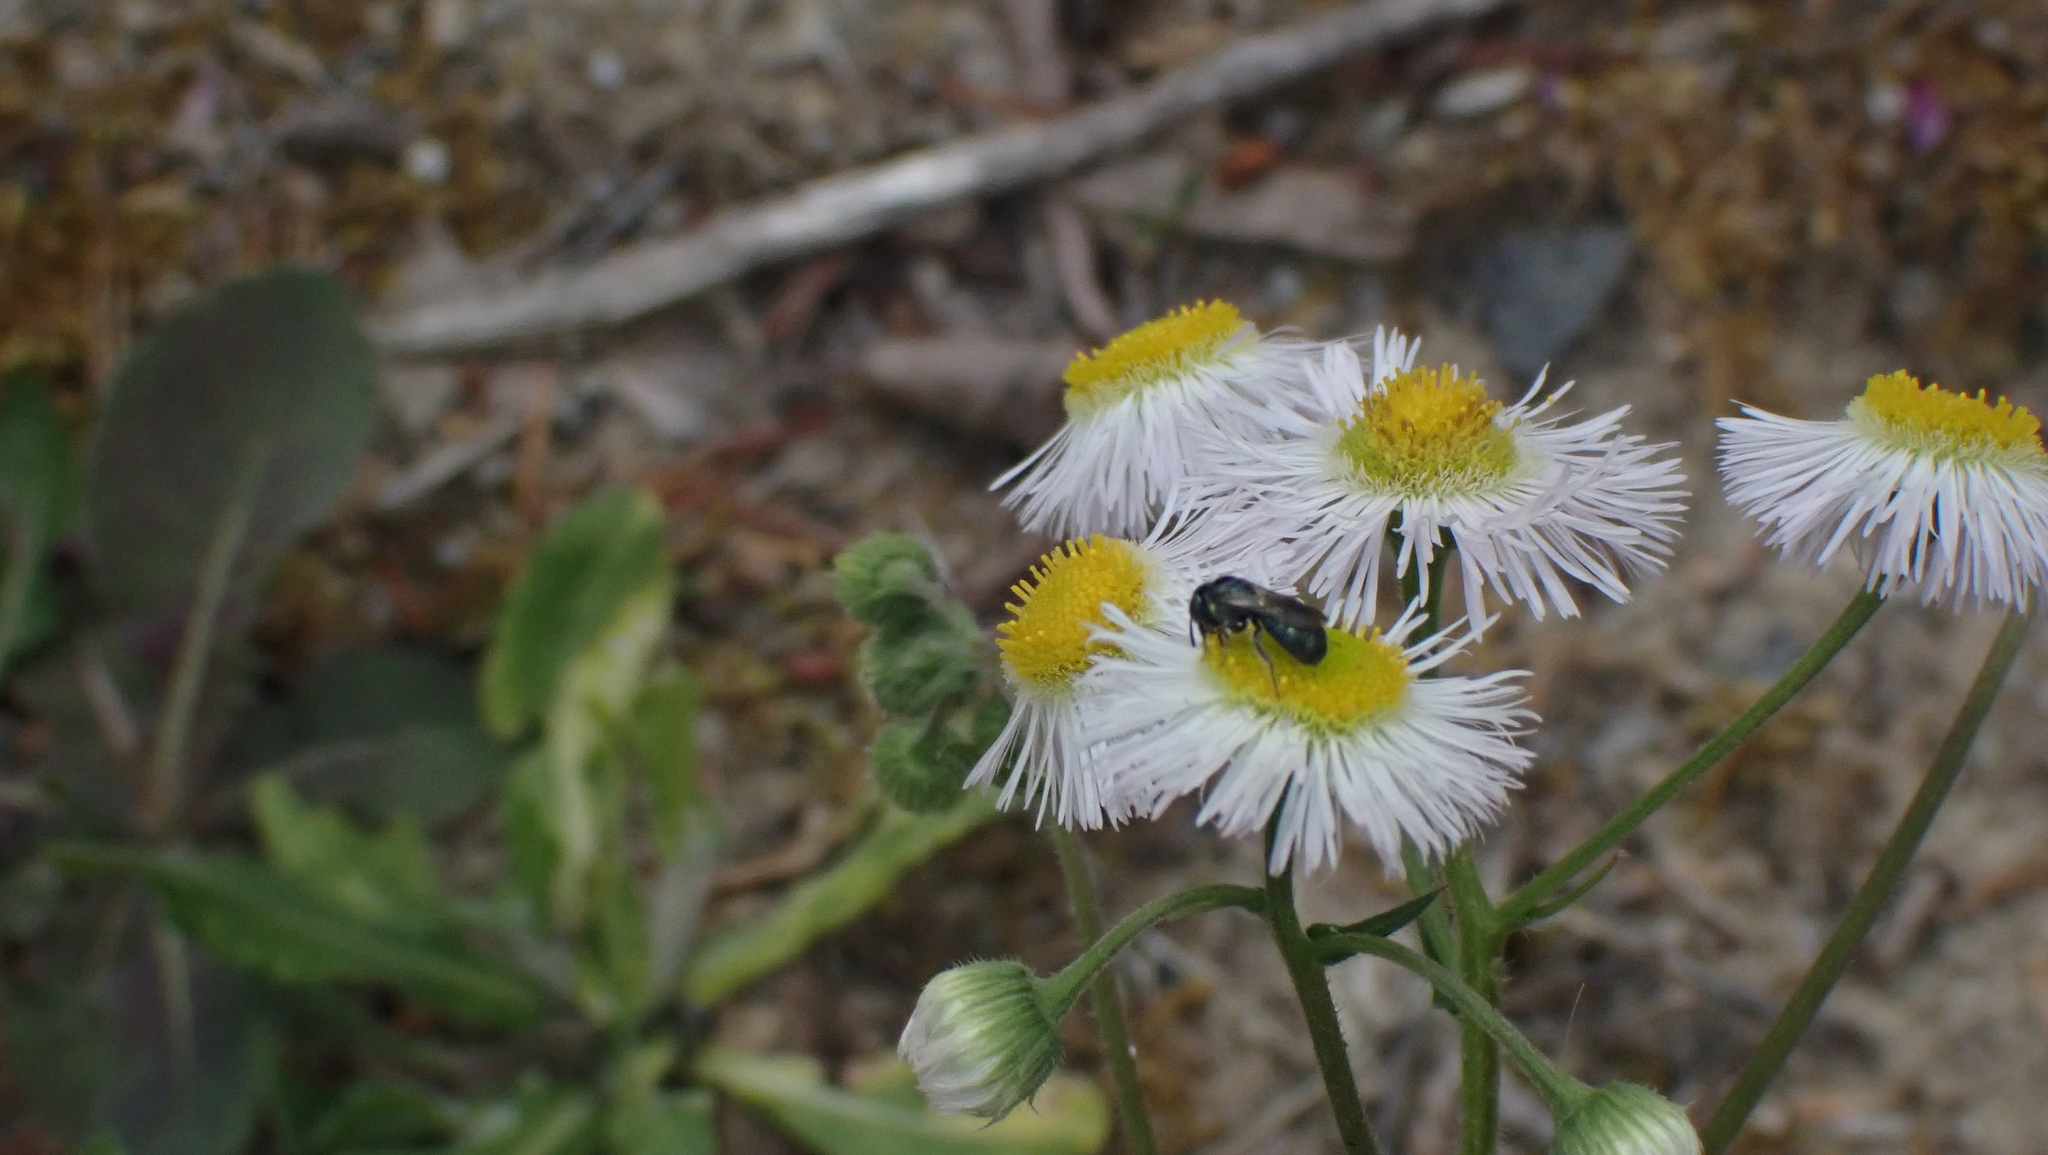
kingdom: Animalia
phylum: Arthropoda
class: Insecta
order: Hymenoptera
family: Apidae
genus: Zadontomerus
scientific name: Zadontomerus
